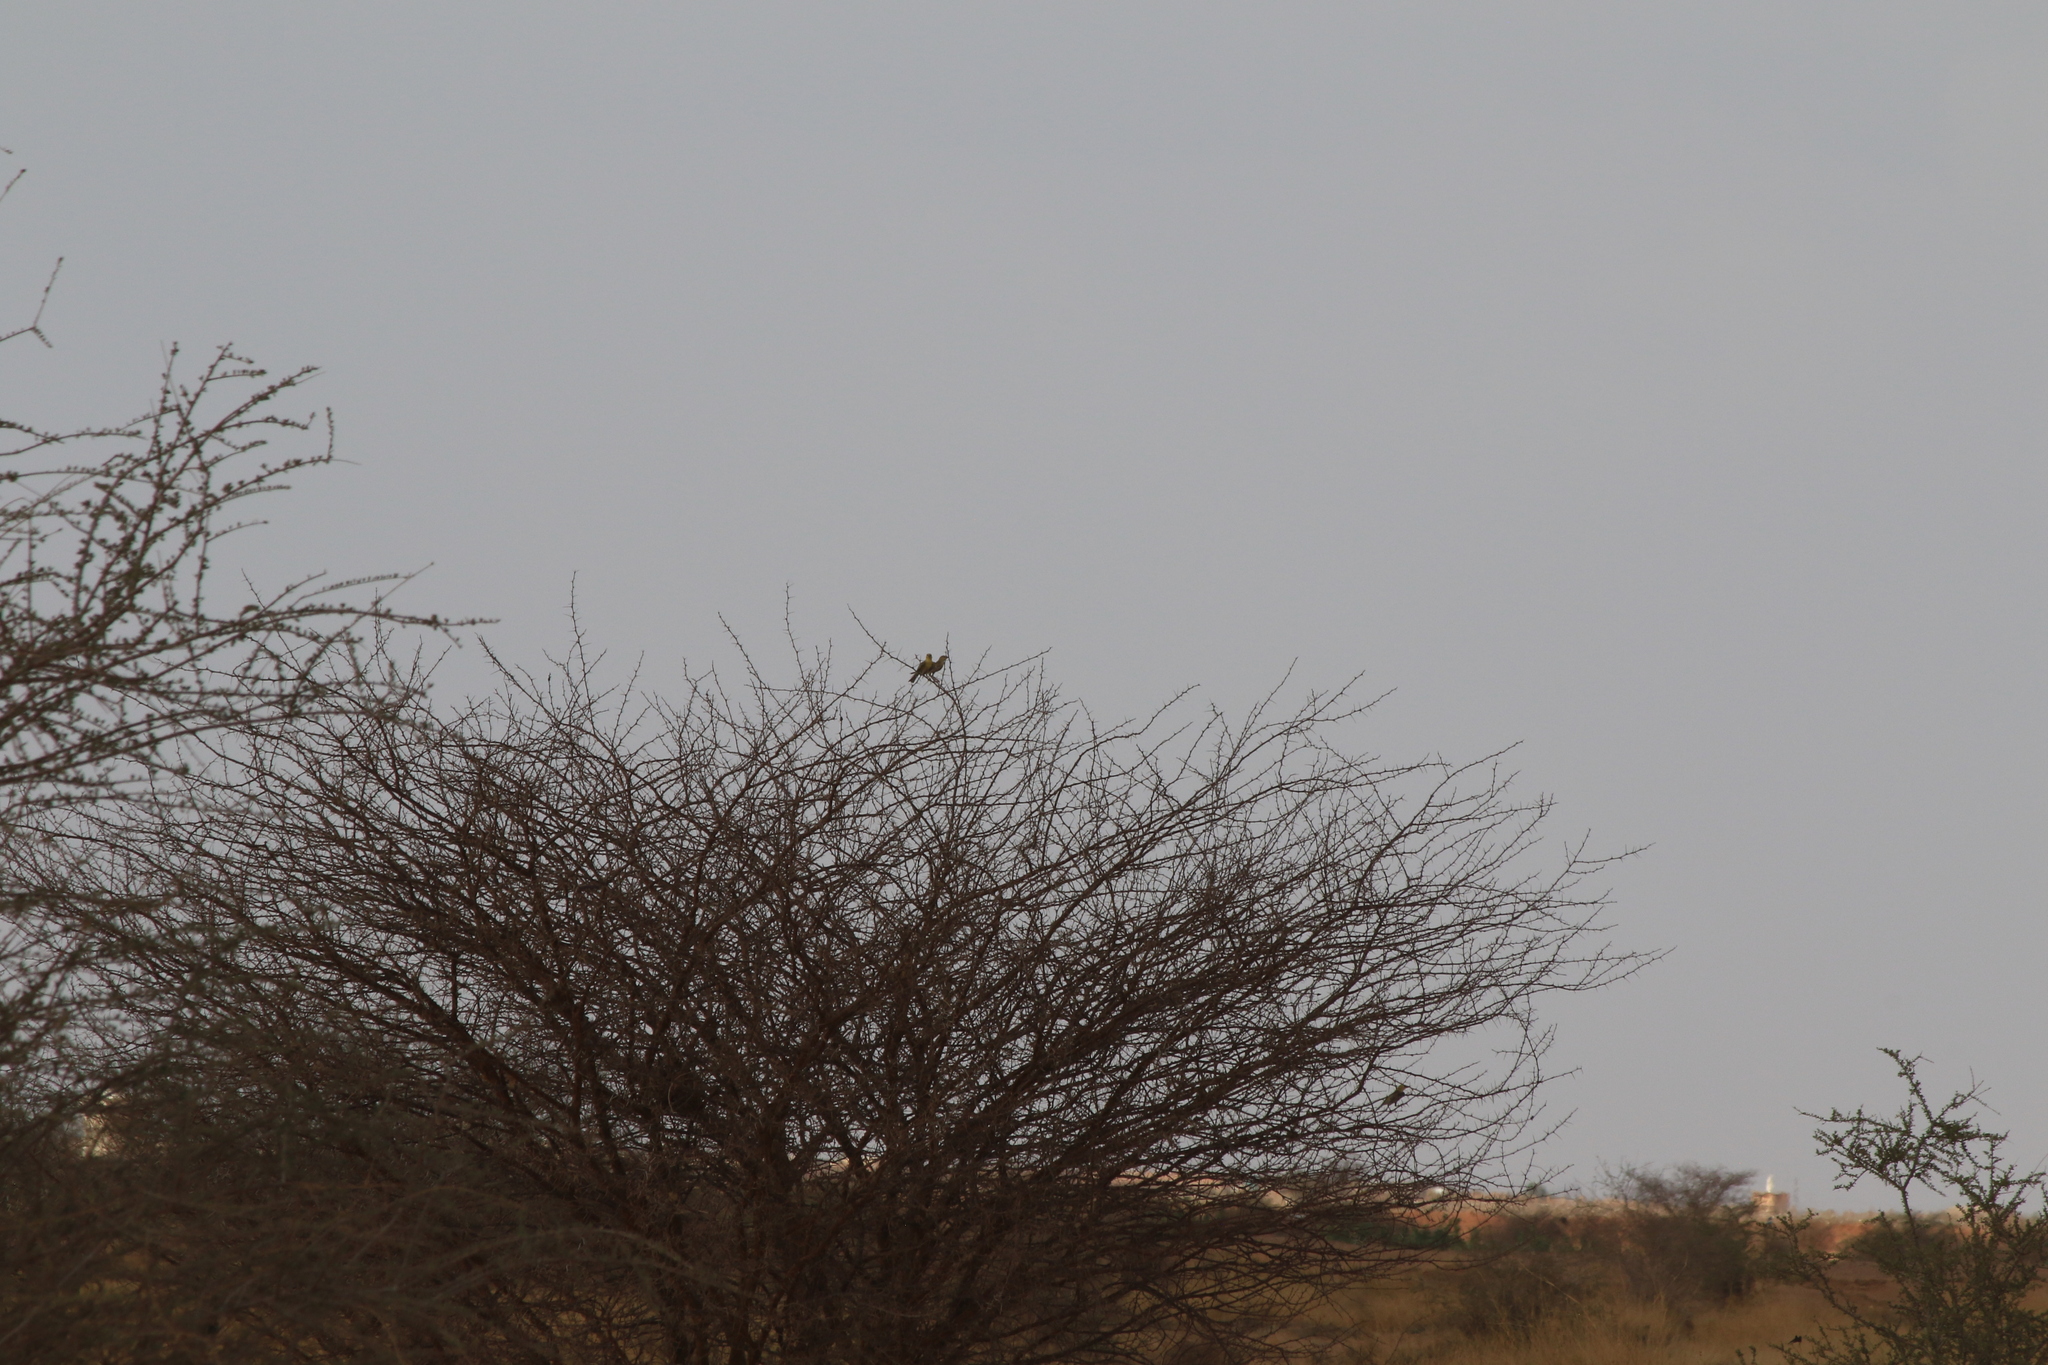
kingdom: Animalia
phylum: Chordata
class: Aves
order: Passeriformes
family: Passeridae
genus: Passer
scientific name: Passer luteus
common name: Sudan golden sparrow
